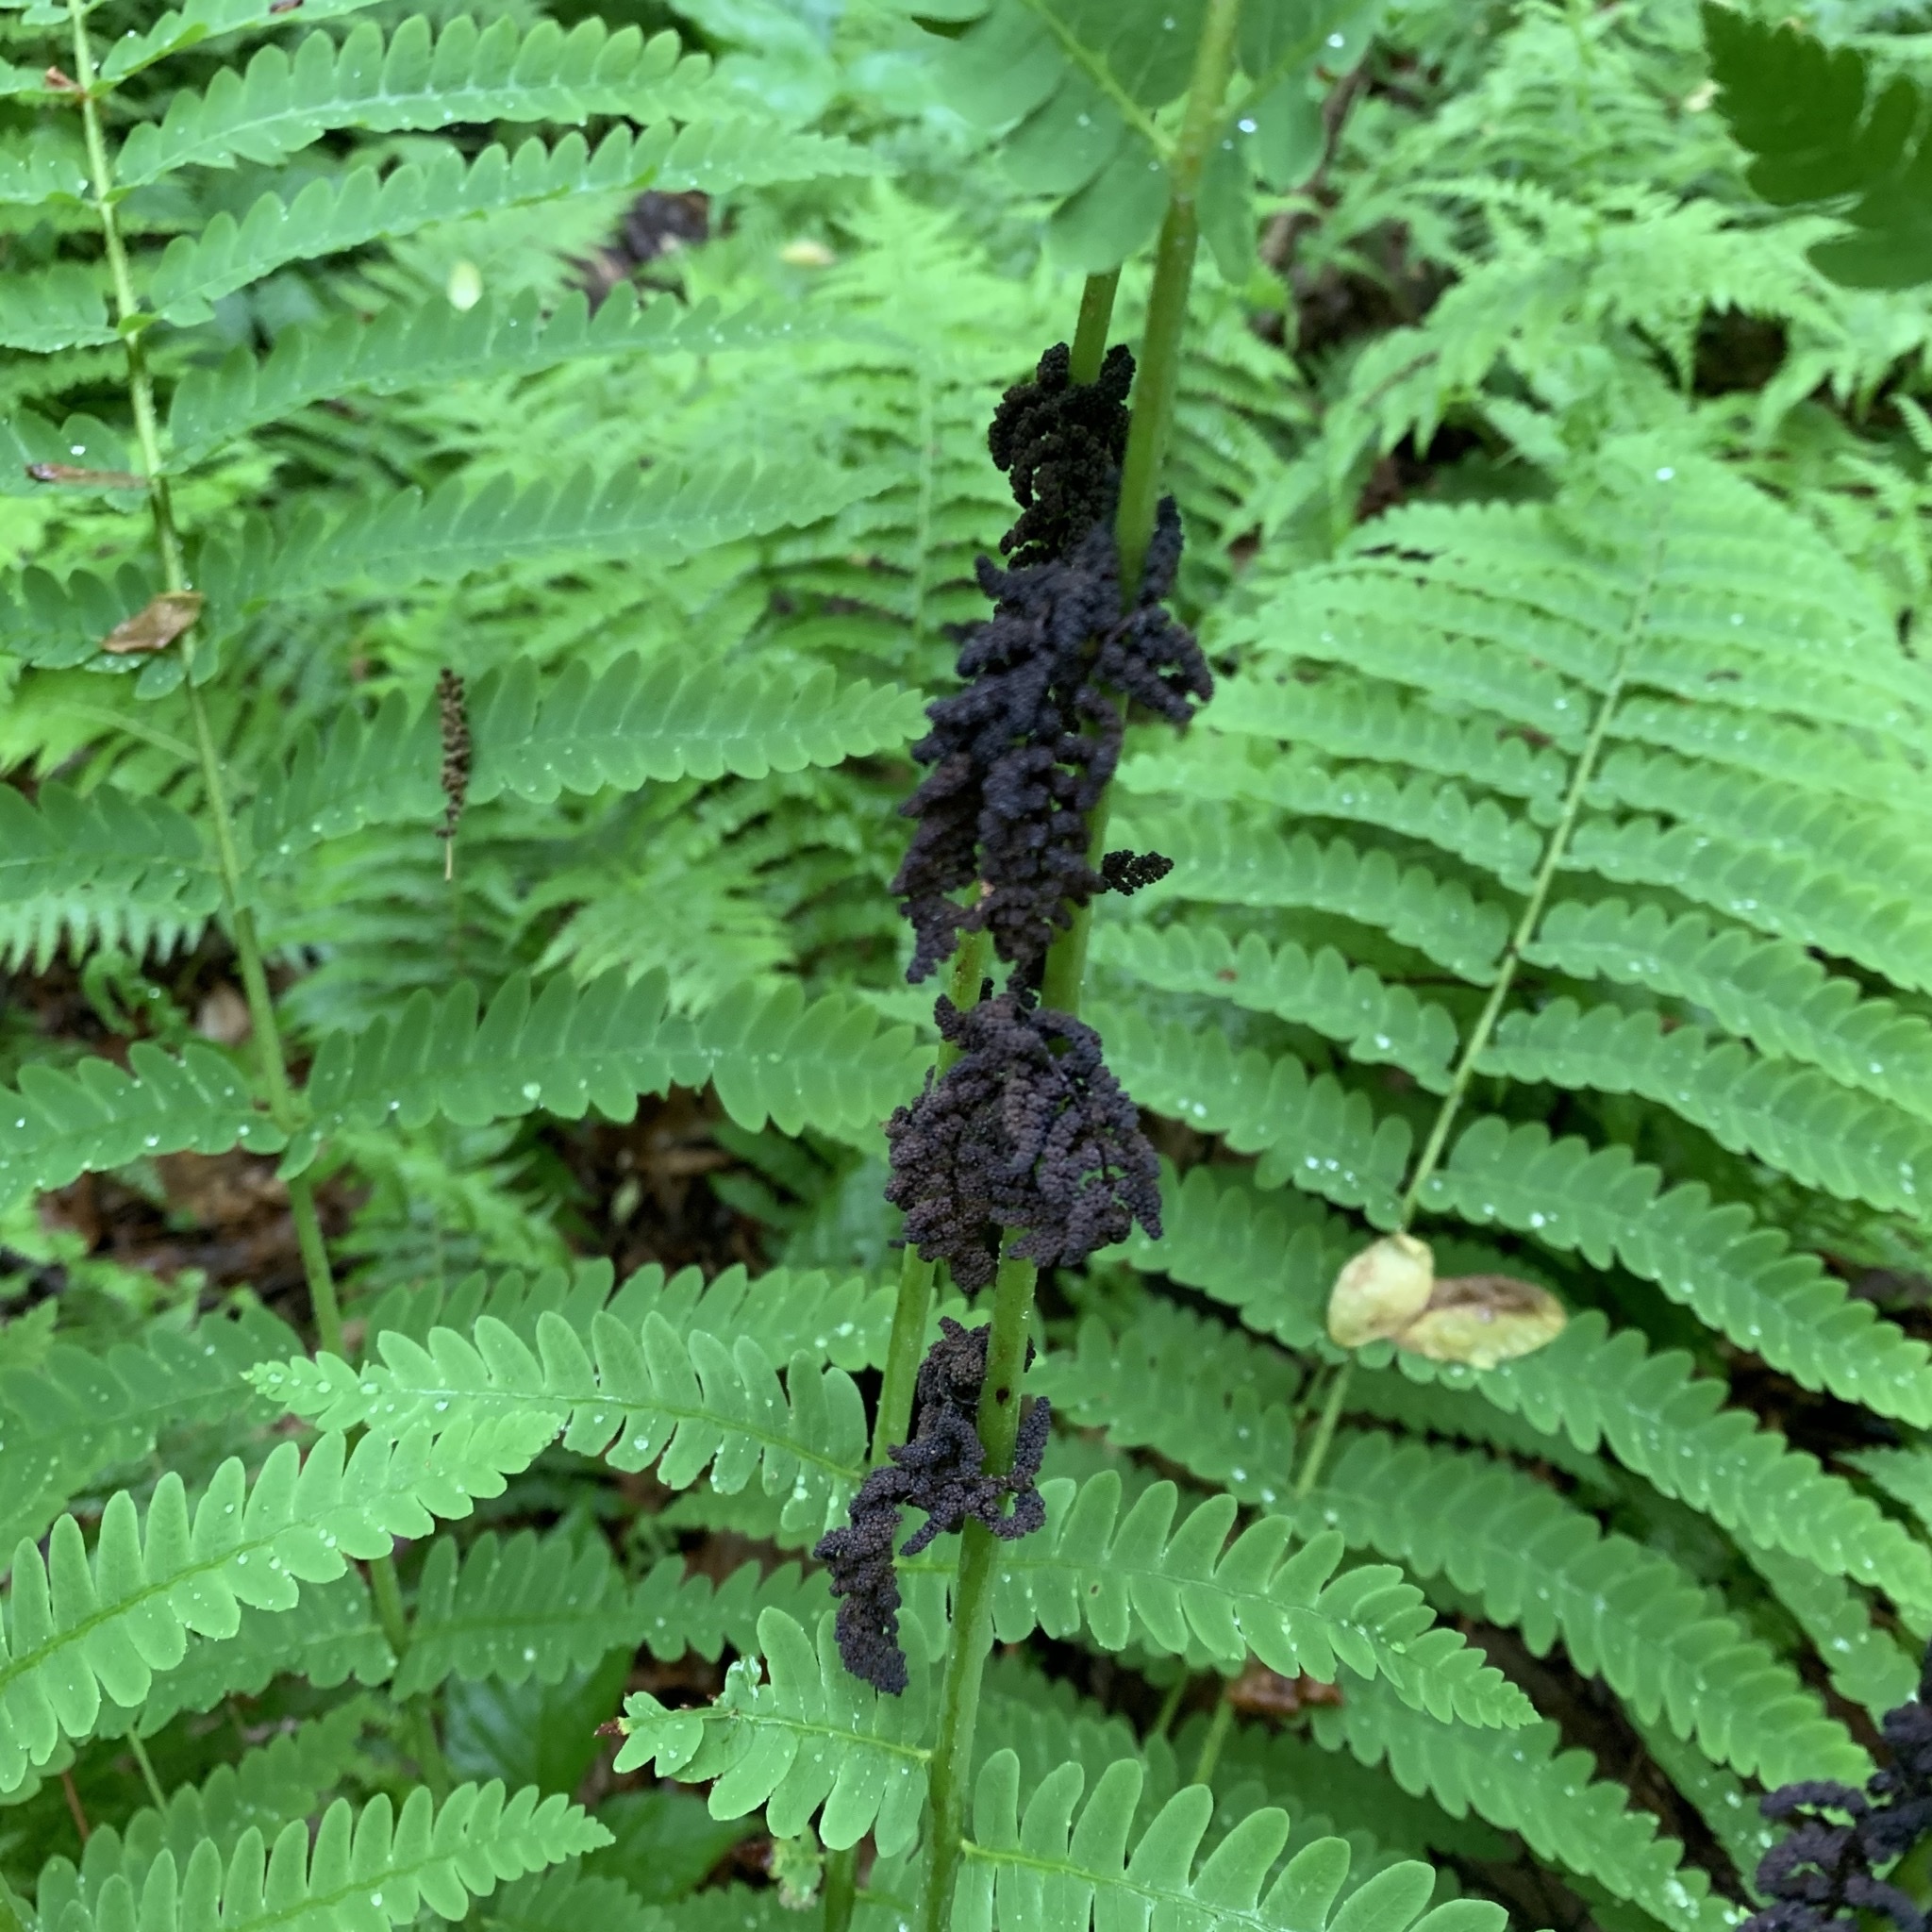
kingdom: Plantae
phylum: Tracheophyta
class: Polypodiopsida
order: Osmundales
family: Osmundaceae
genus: Claytosmunda
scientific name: Claytosmunda claytoniana
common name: Clayton's fern
